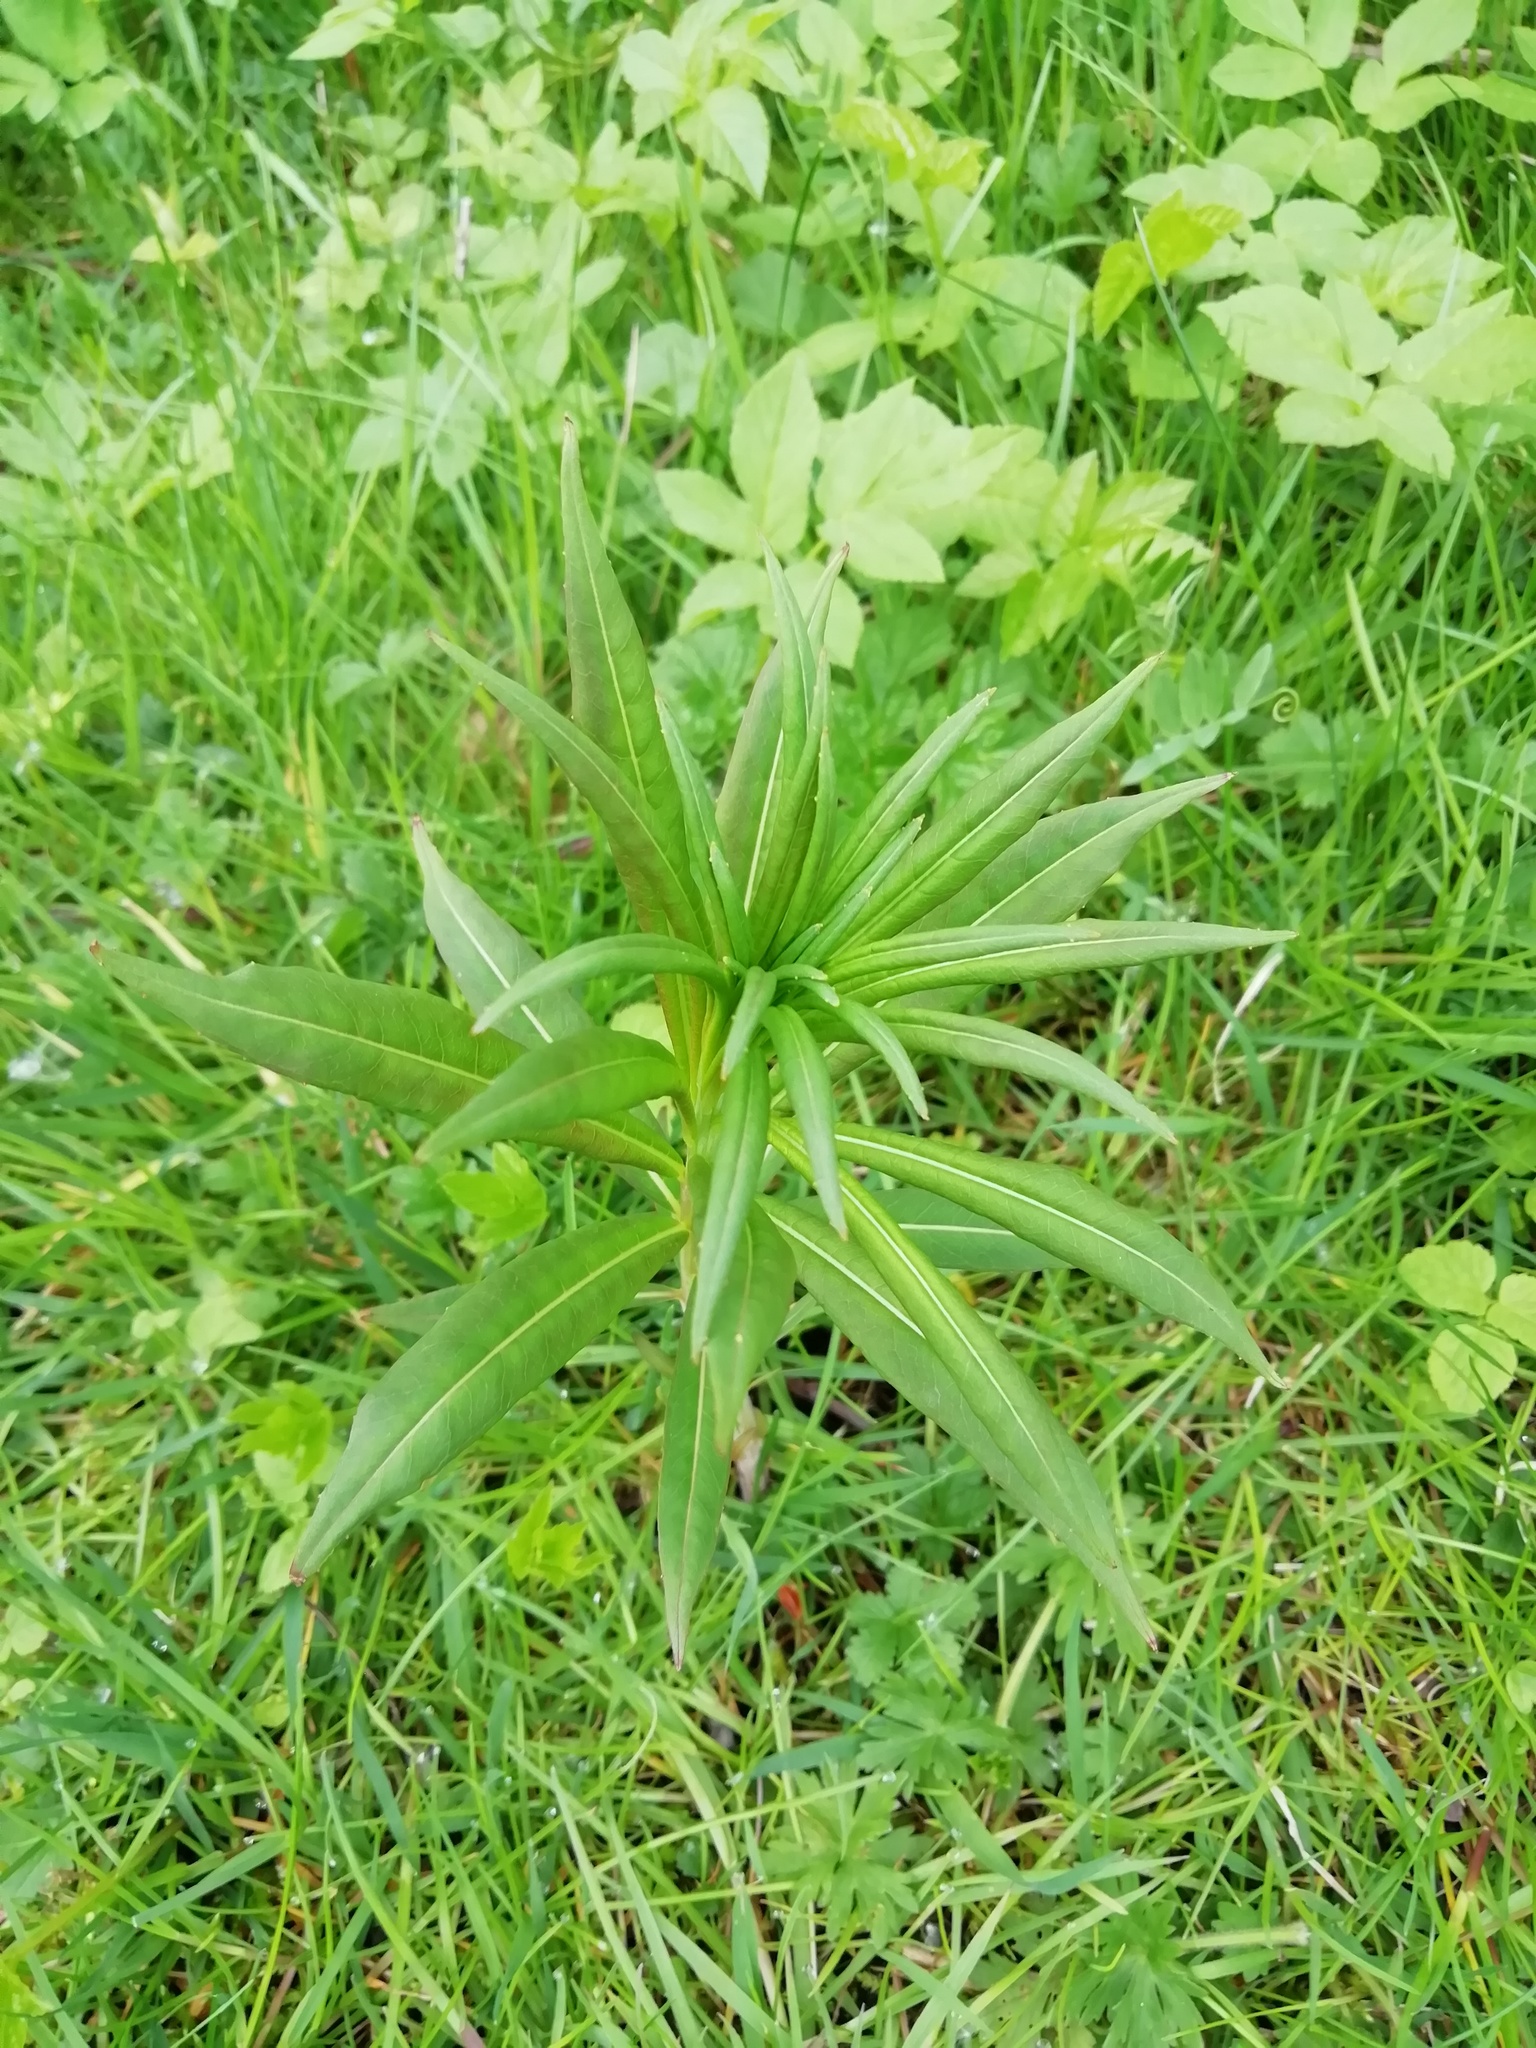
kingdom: Plantae
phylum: Tracheophyta
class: Magnoliopsida
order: Myrtales
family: Onagraceae
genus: Chamaenerion
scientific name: Chamaenerion angustifolium
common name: Fireweed
